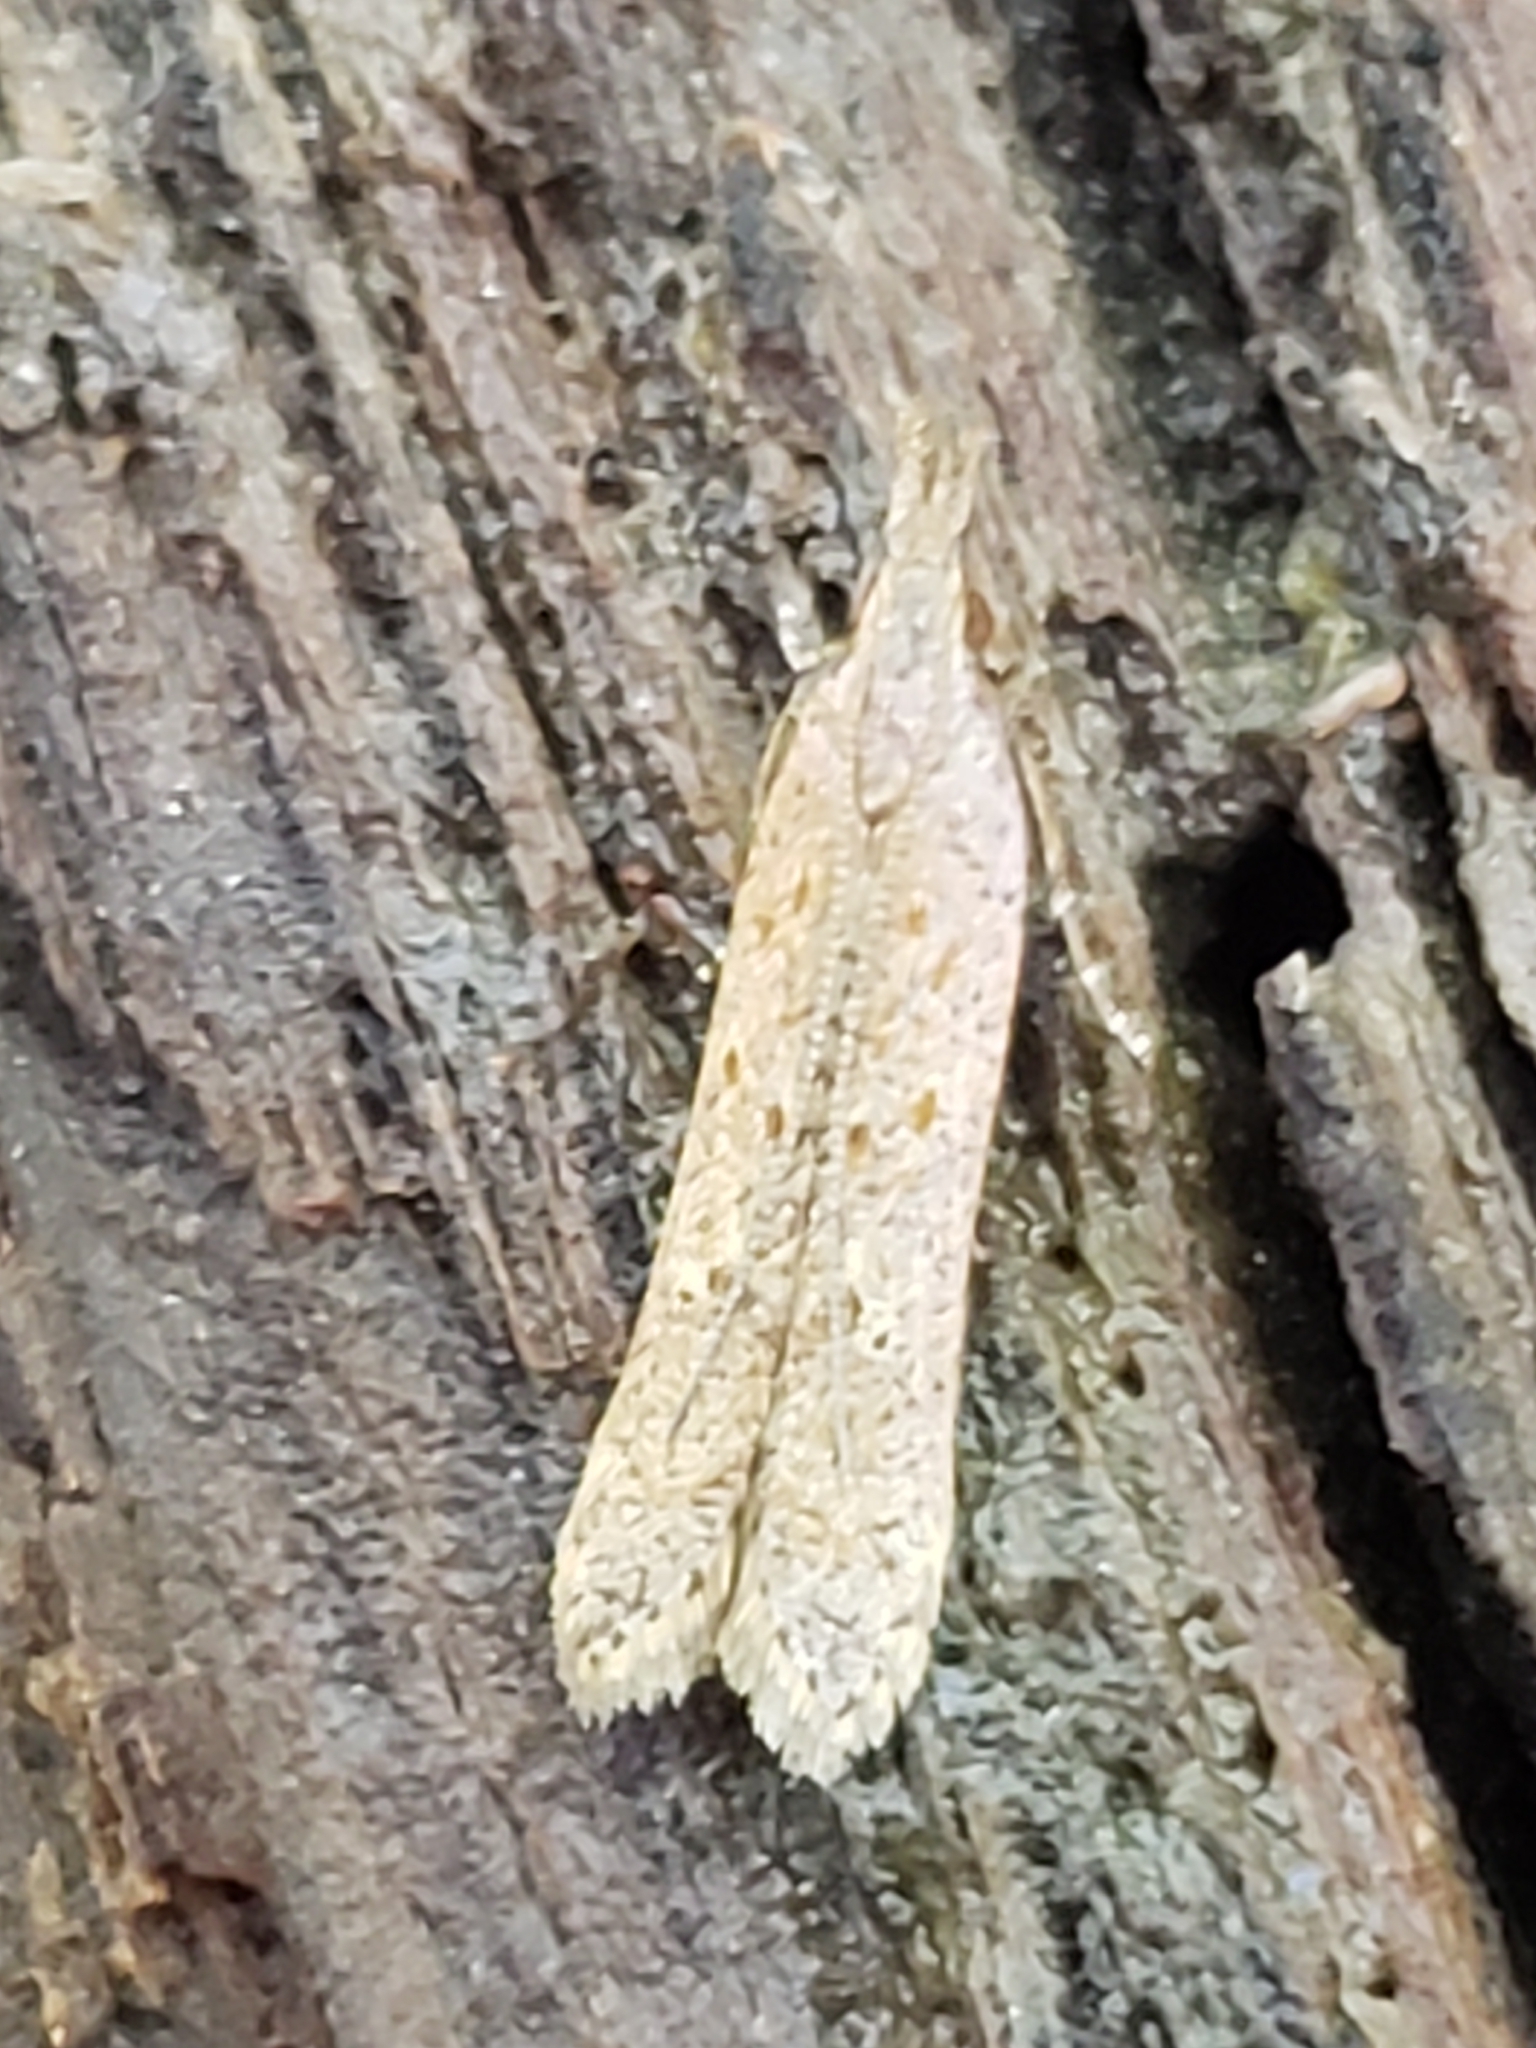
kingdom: Animalia
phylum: Arthropoda
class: Insecta
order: Lepidoptera
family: Gelechiidae
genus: Dichomeris
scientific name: Dichomeris ligulella
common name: Moth
